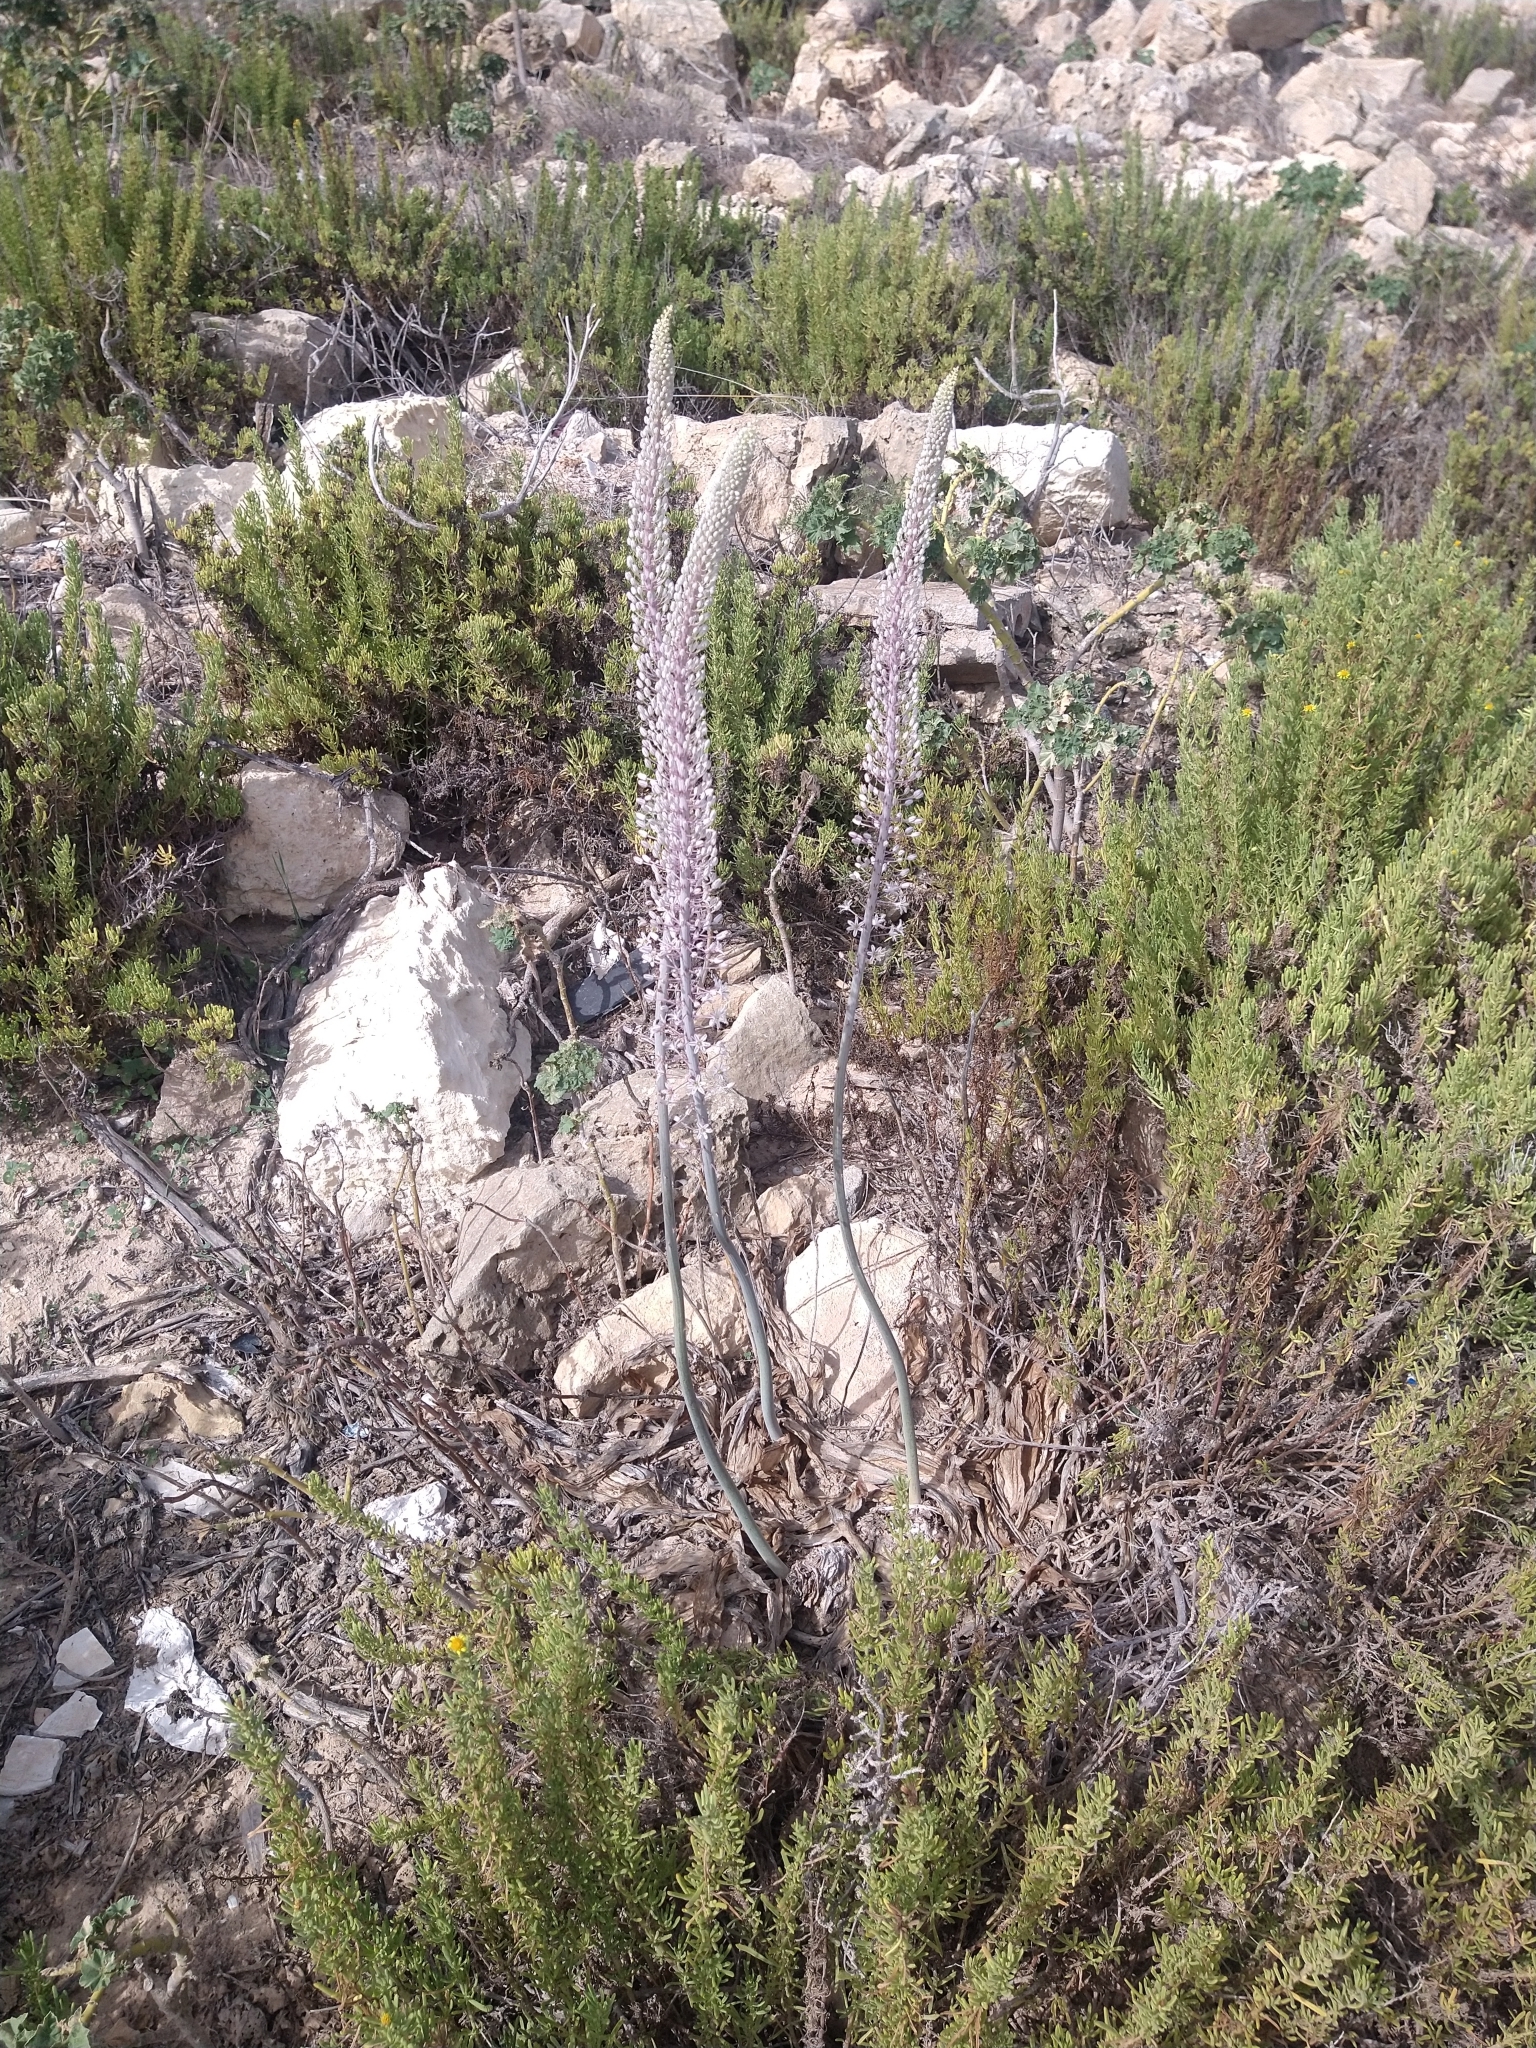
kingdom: Plantae
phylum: Tracheophyta
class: Liliopsida
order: Asparagales
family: Asparagaceae
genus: Drimia
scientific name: Drimia pancration
